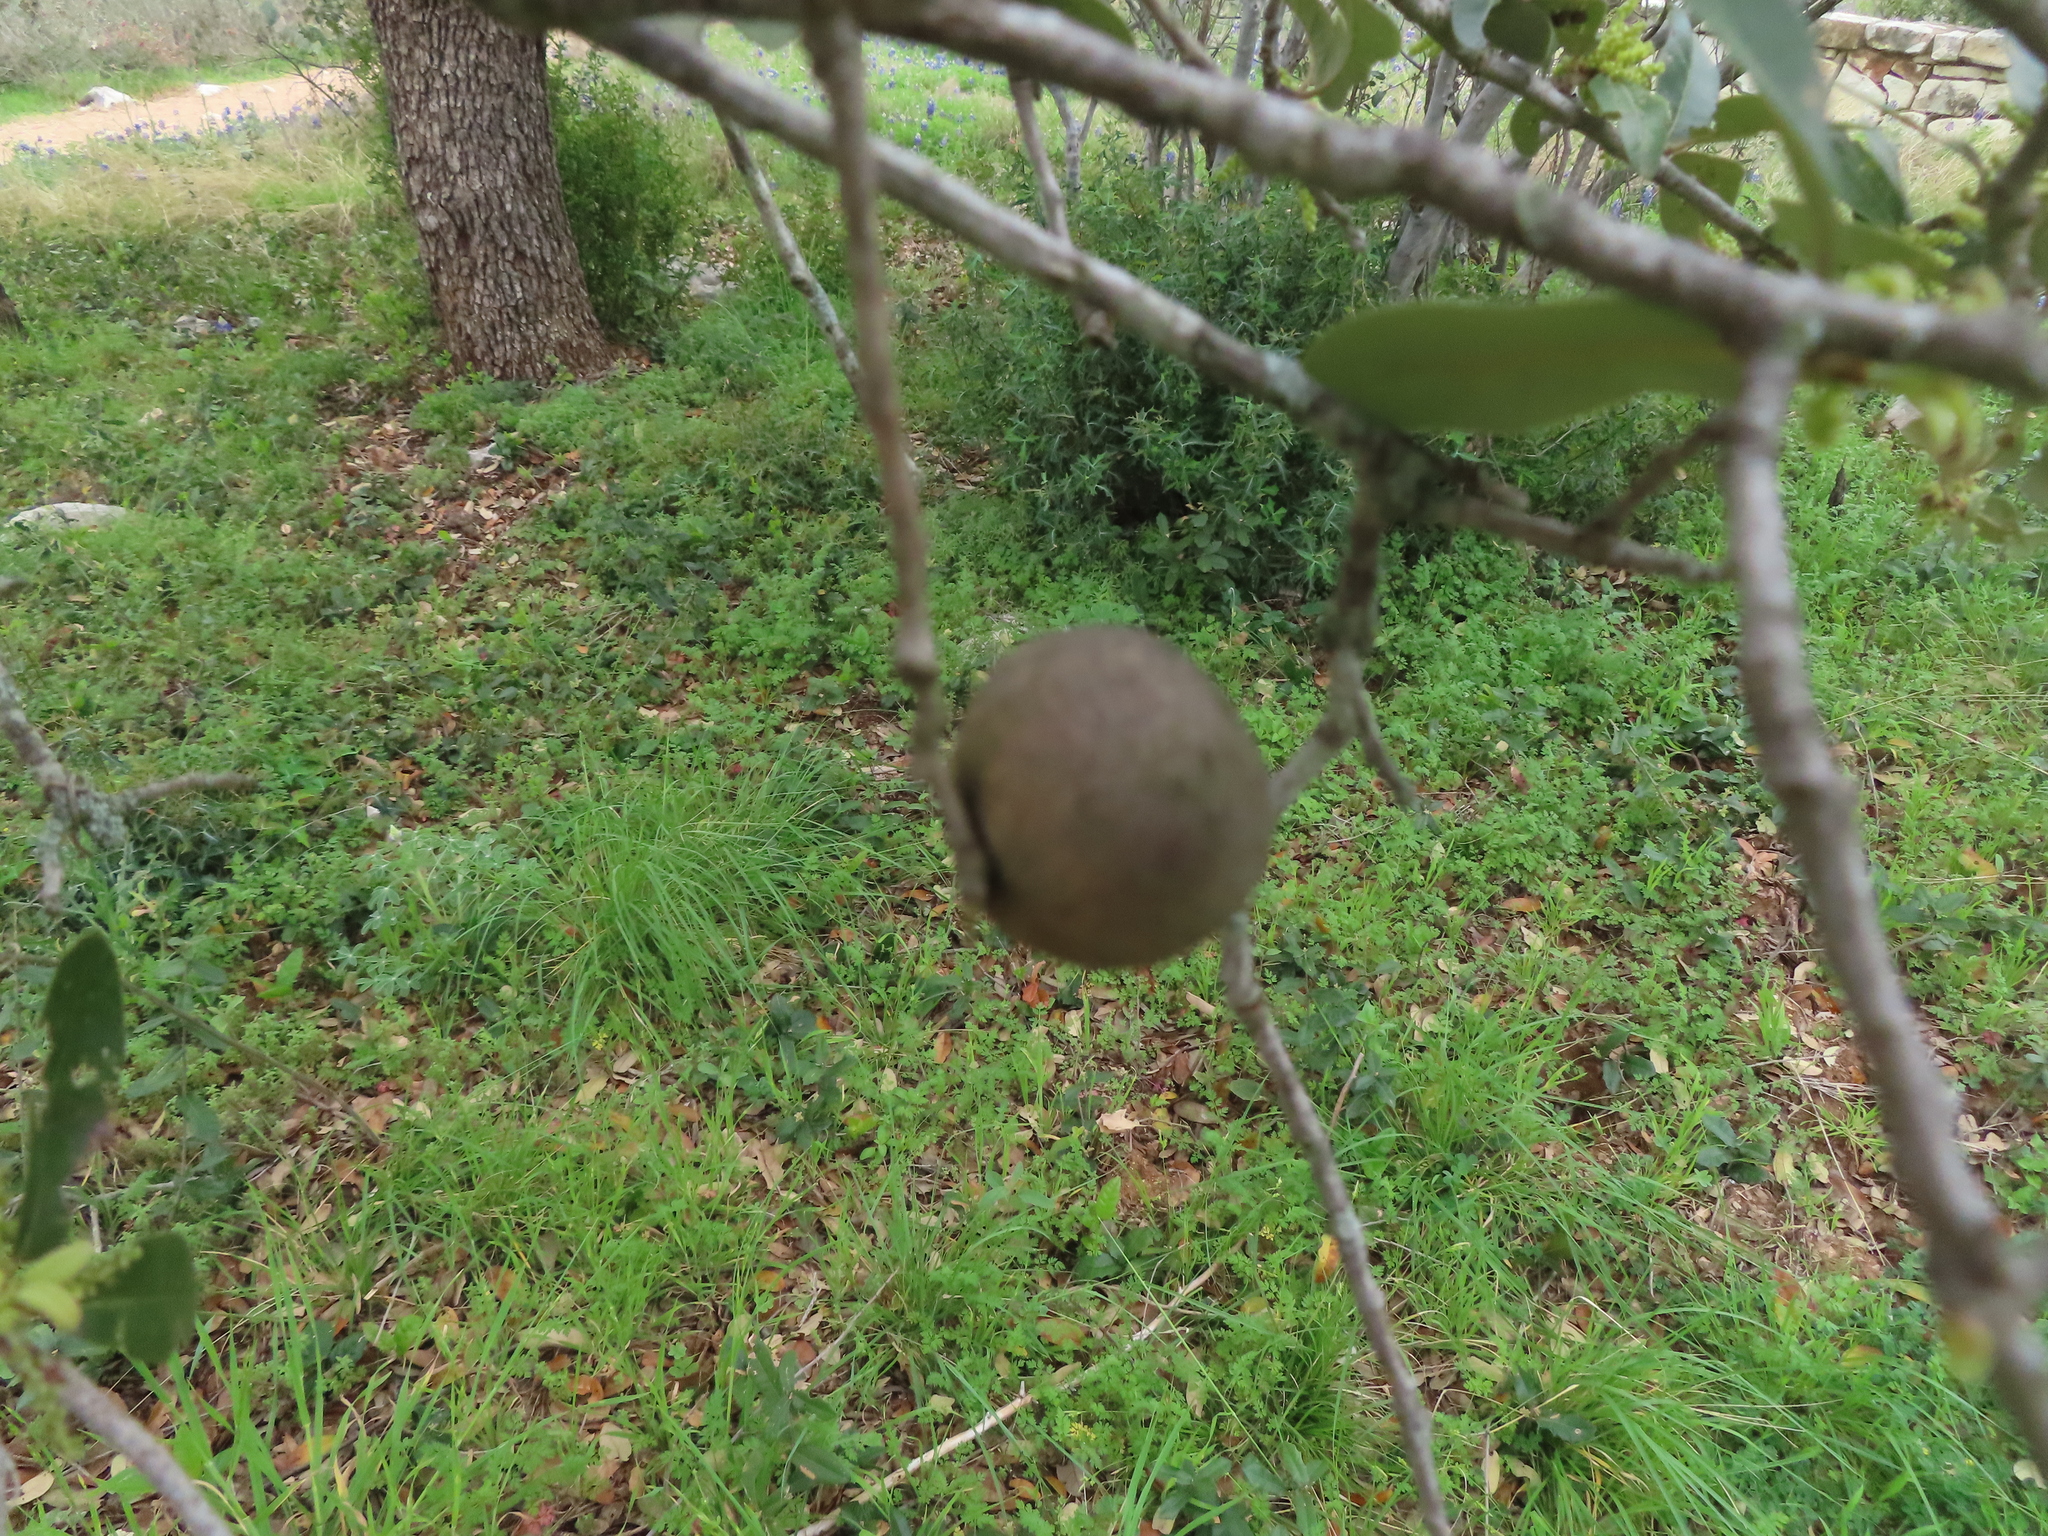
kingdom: Animalia
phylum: Arthropoda
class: Insecta
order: Hymenoptera
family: Cynipidae
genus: Disholcaspis
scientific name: Disholcaspis
